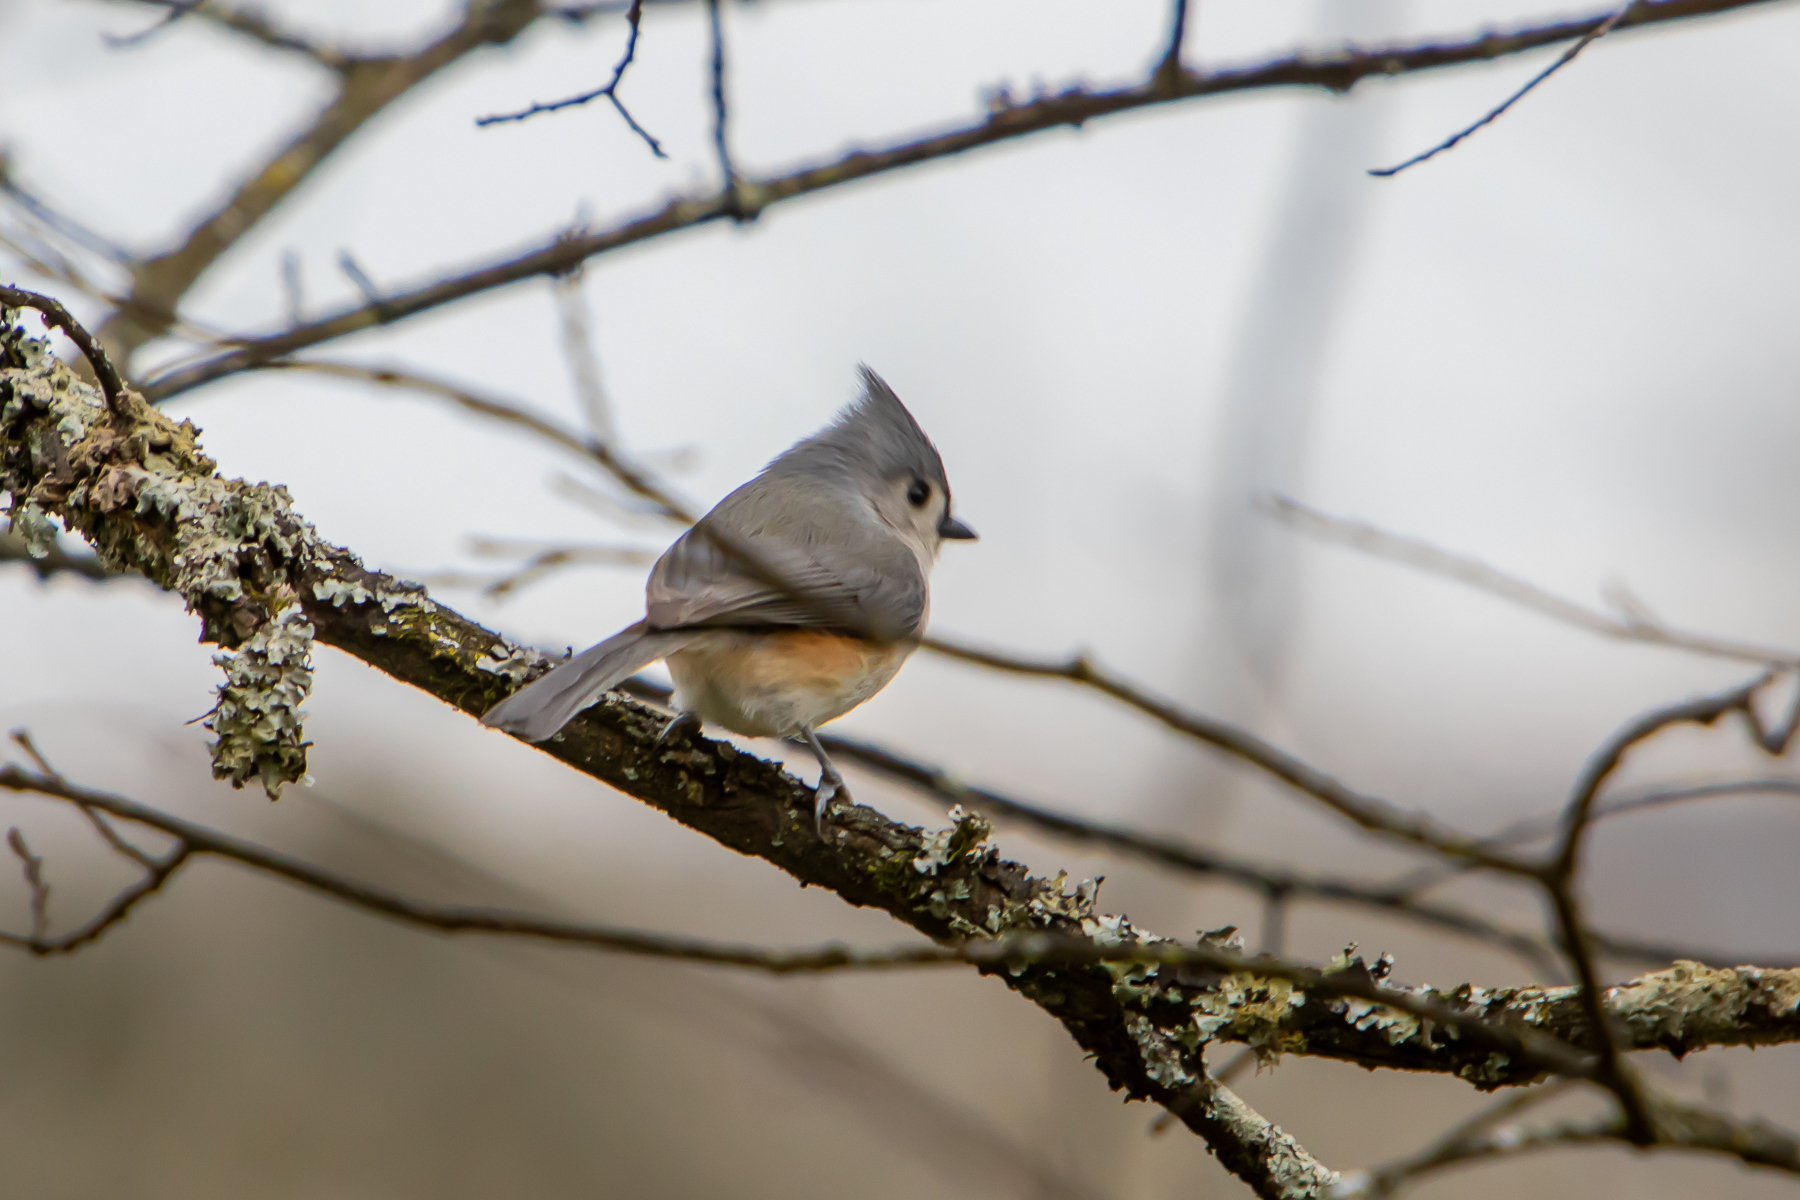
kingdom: Animalia
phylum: Chordata
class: Aves
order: Passeriformes
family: Paridae
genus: Baeolophus
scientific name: Baeolophus bicolor
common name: Tufted titmouse
